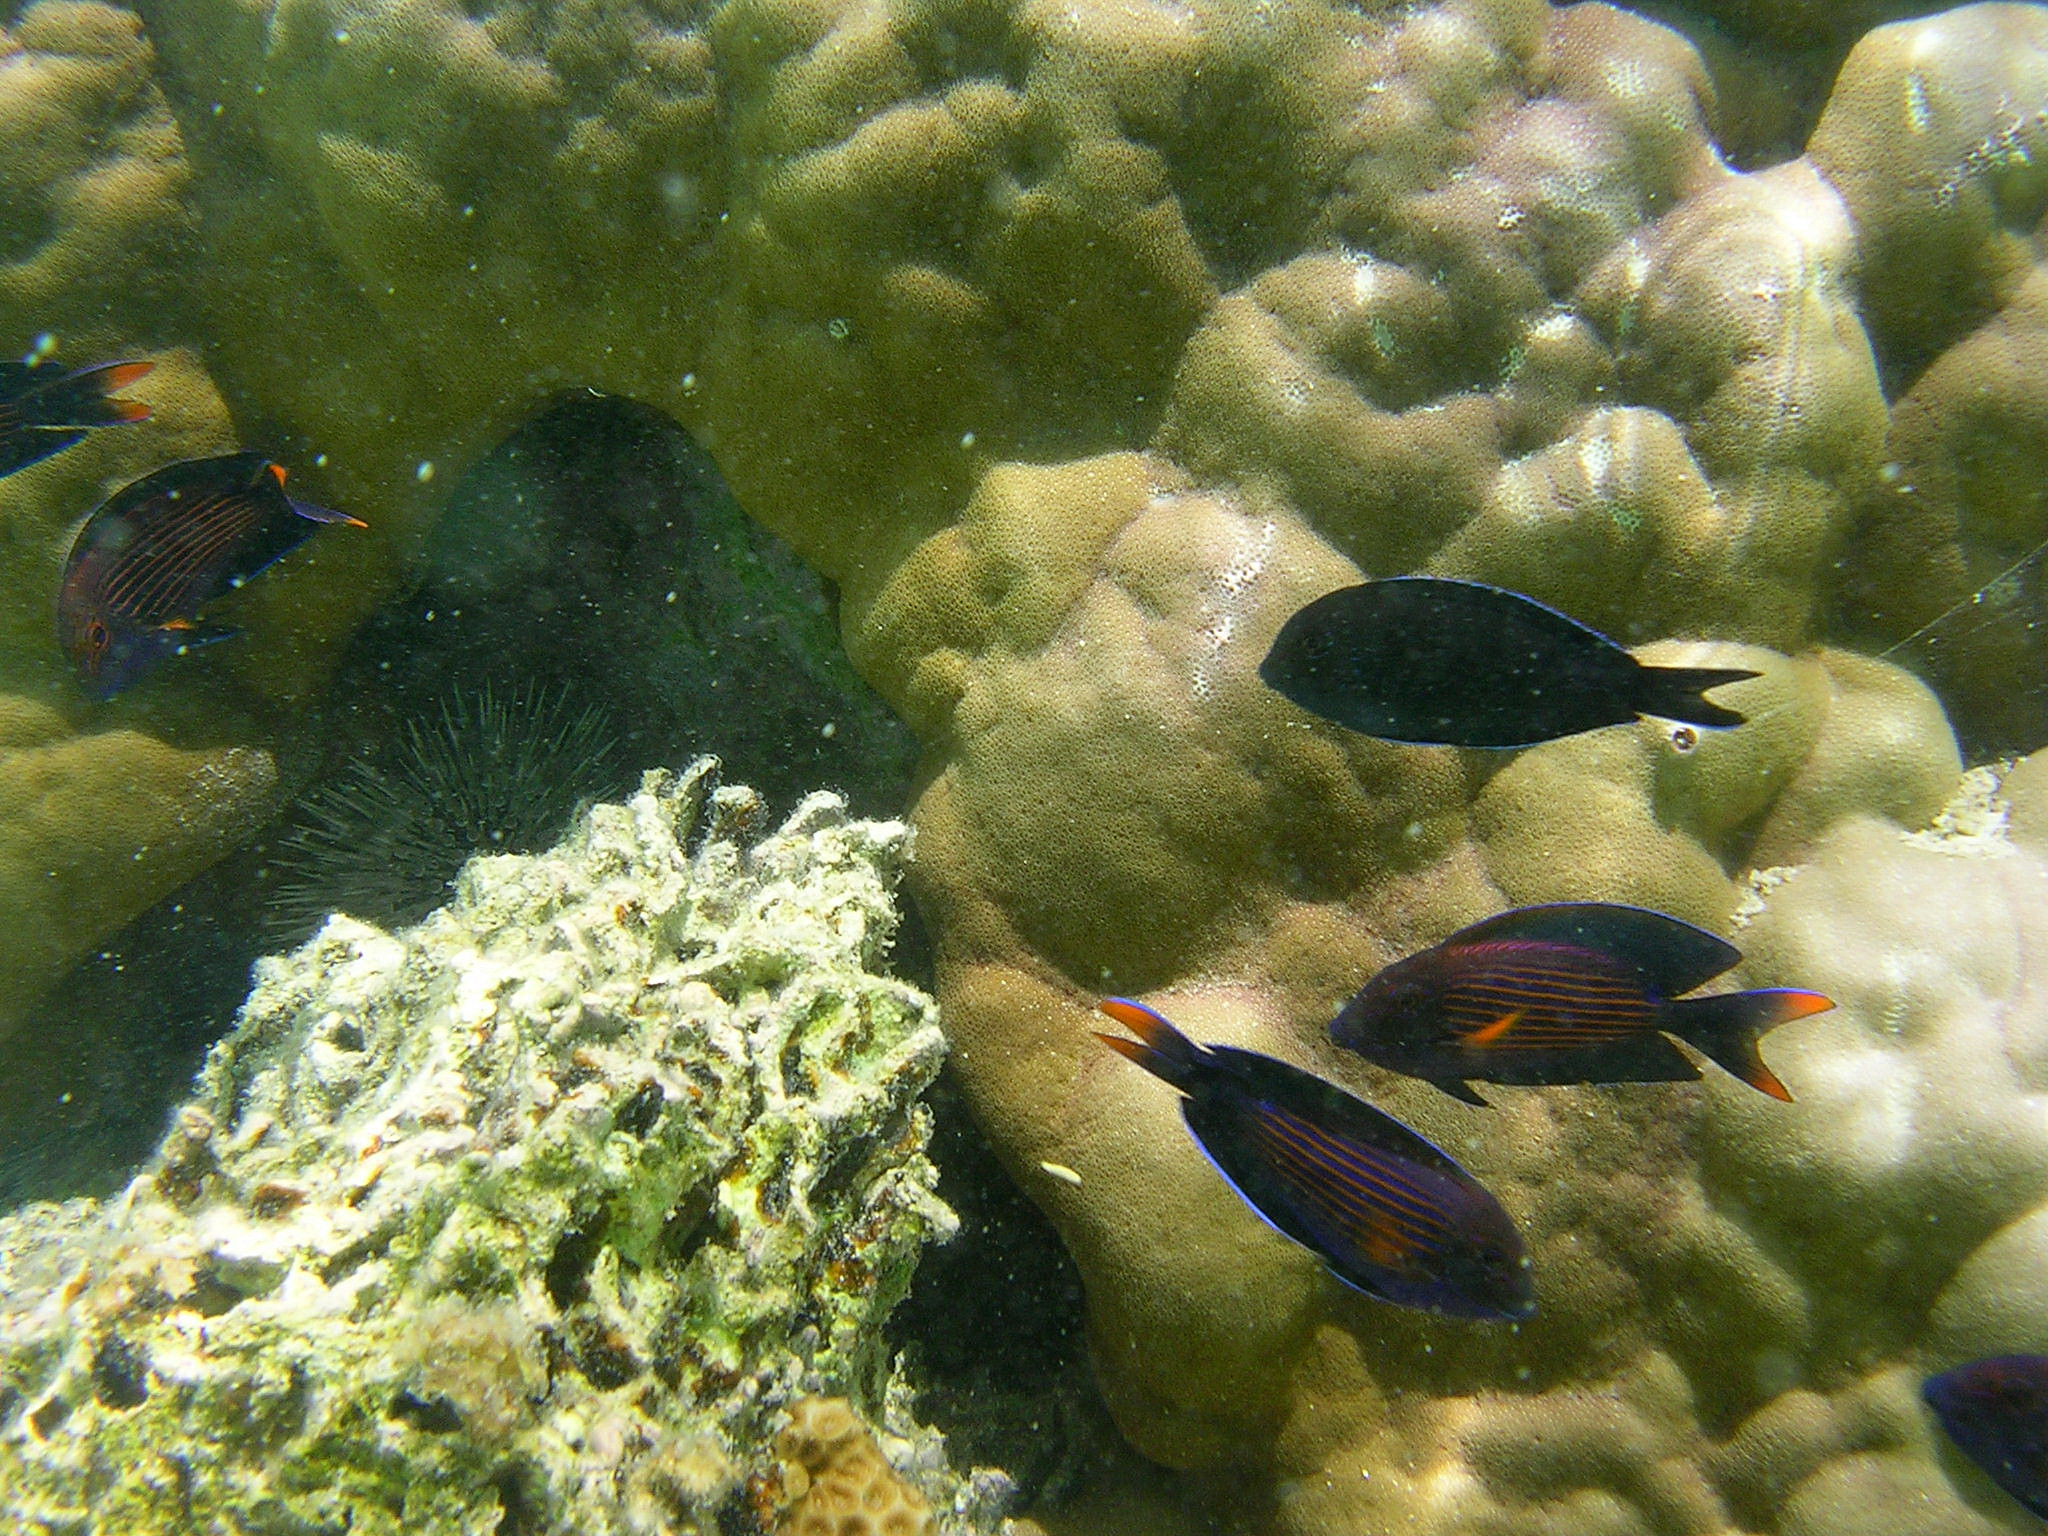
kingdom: Animalia
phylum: Chordata
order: Perciformes
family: Acanthuridae
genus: Ctenochaetus
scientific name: Ctenochaetus striatus
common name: Bristle-toothed surgeonfish
